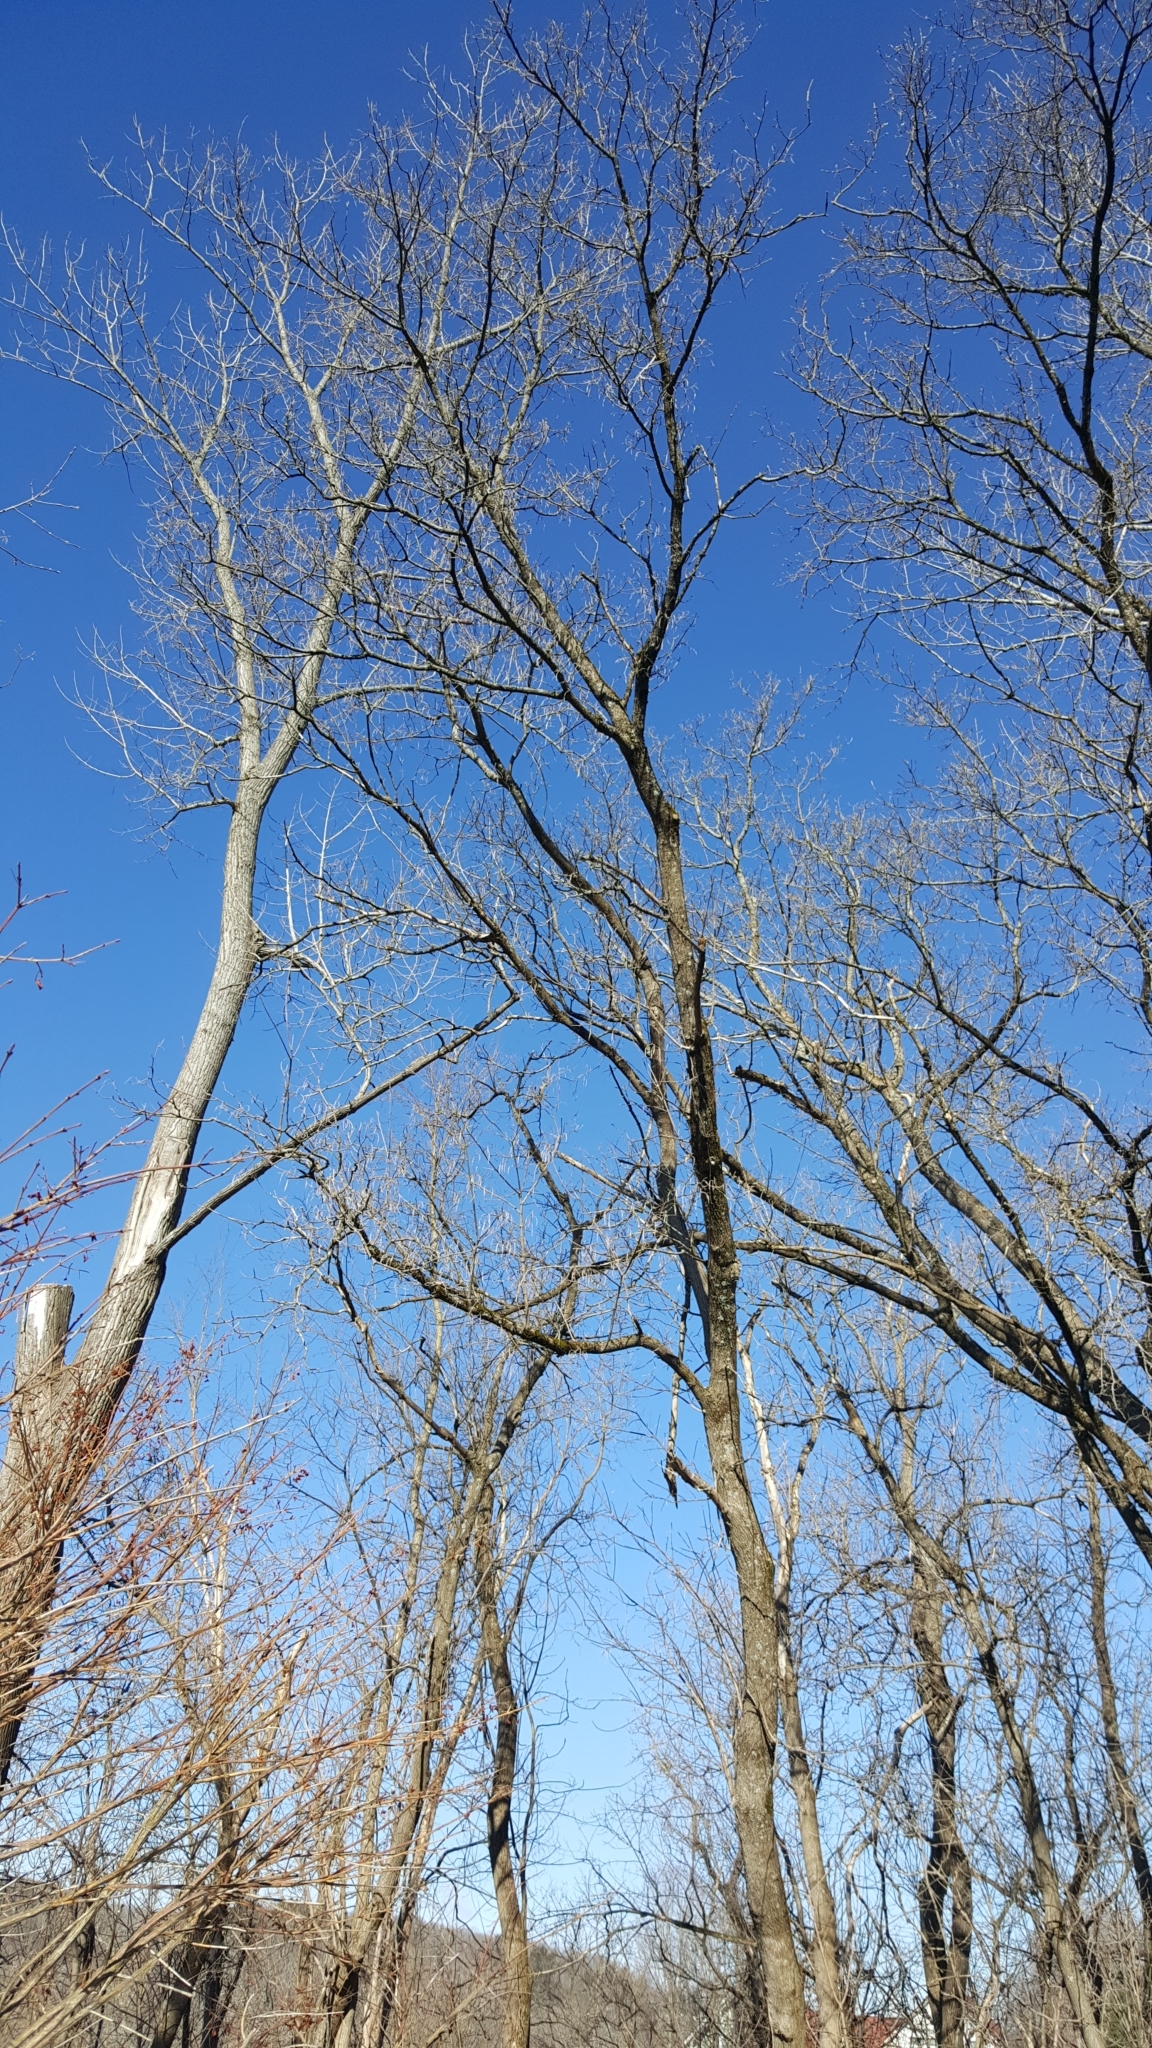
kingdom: Plantae
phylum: Tracheophyta
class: Magnoliopsida
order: Sapindales
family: Sapindaceae
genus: Acer
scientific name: Acer negundo
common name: Ashleaf maple
